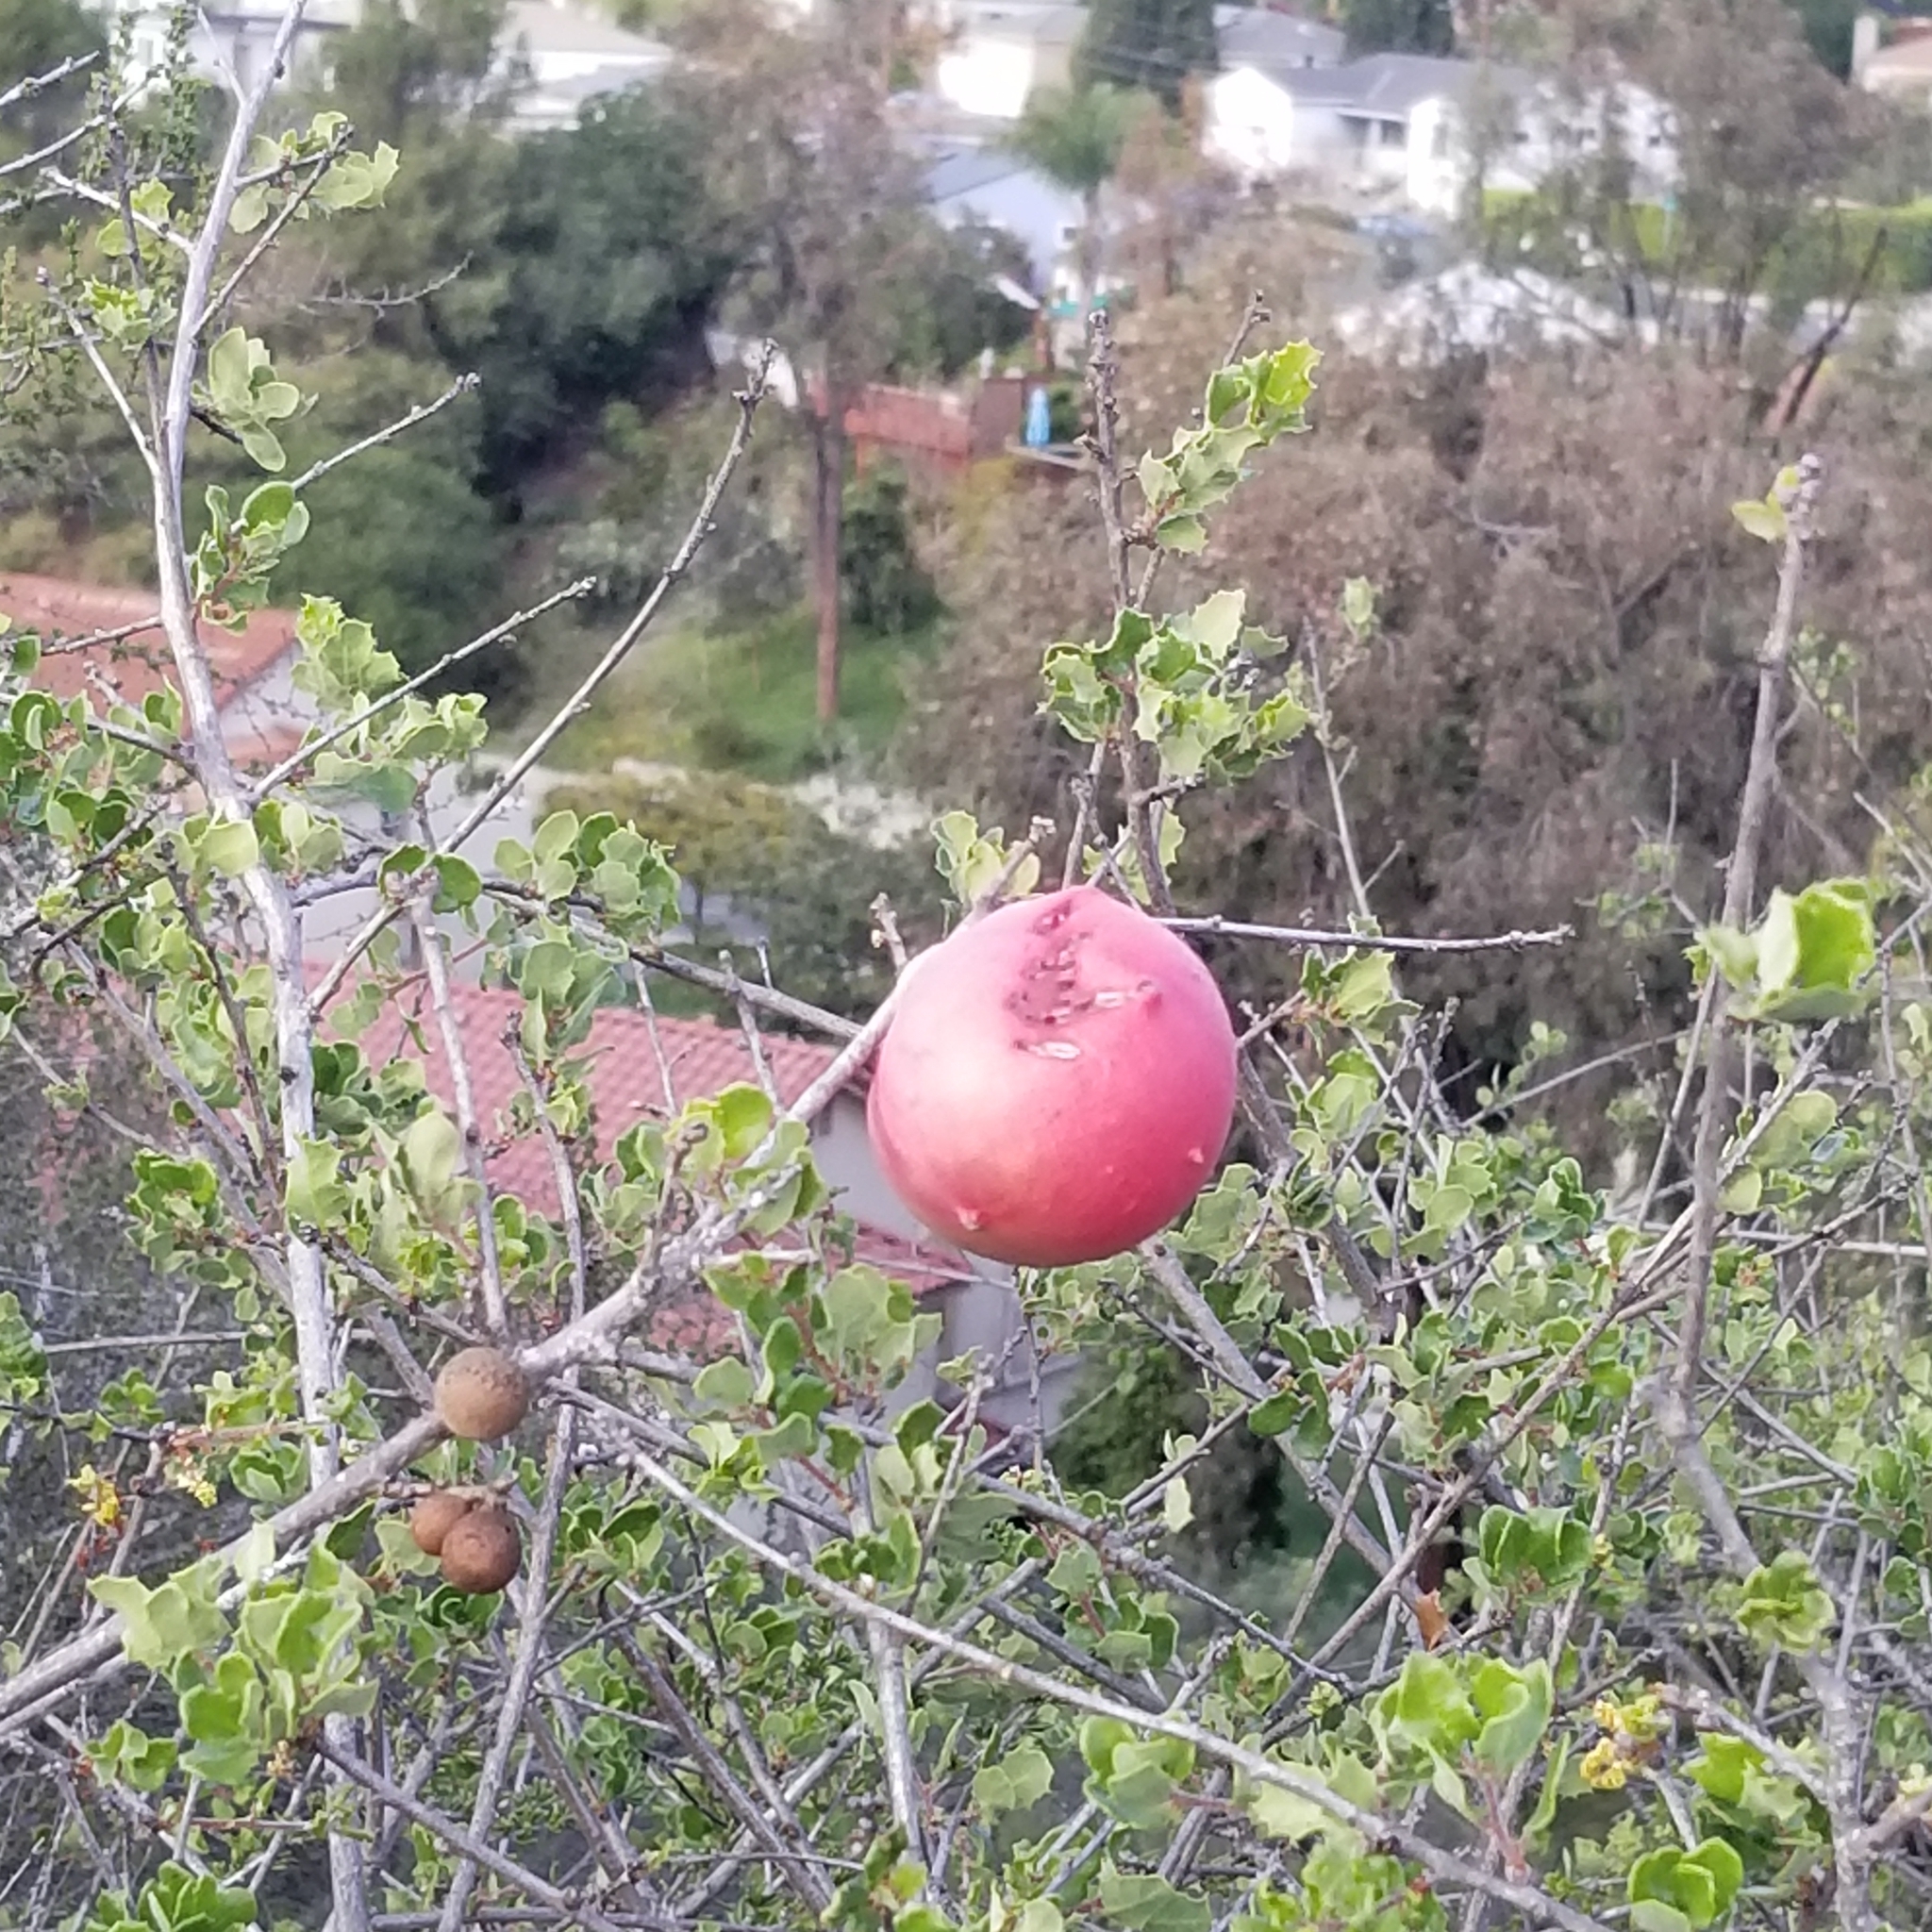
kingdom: Animalia
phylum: Arthropoda
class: Insecta
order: Hymenoptera
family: Cynipidae
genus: Andricus
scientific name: Andricus quercuscalifornicus
